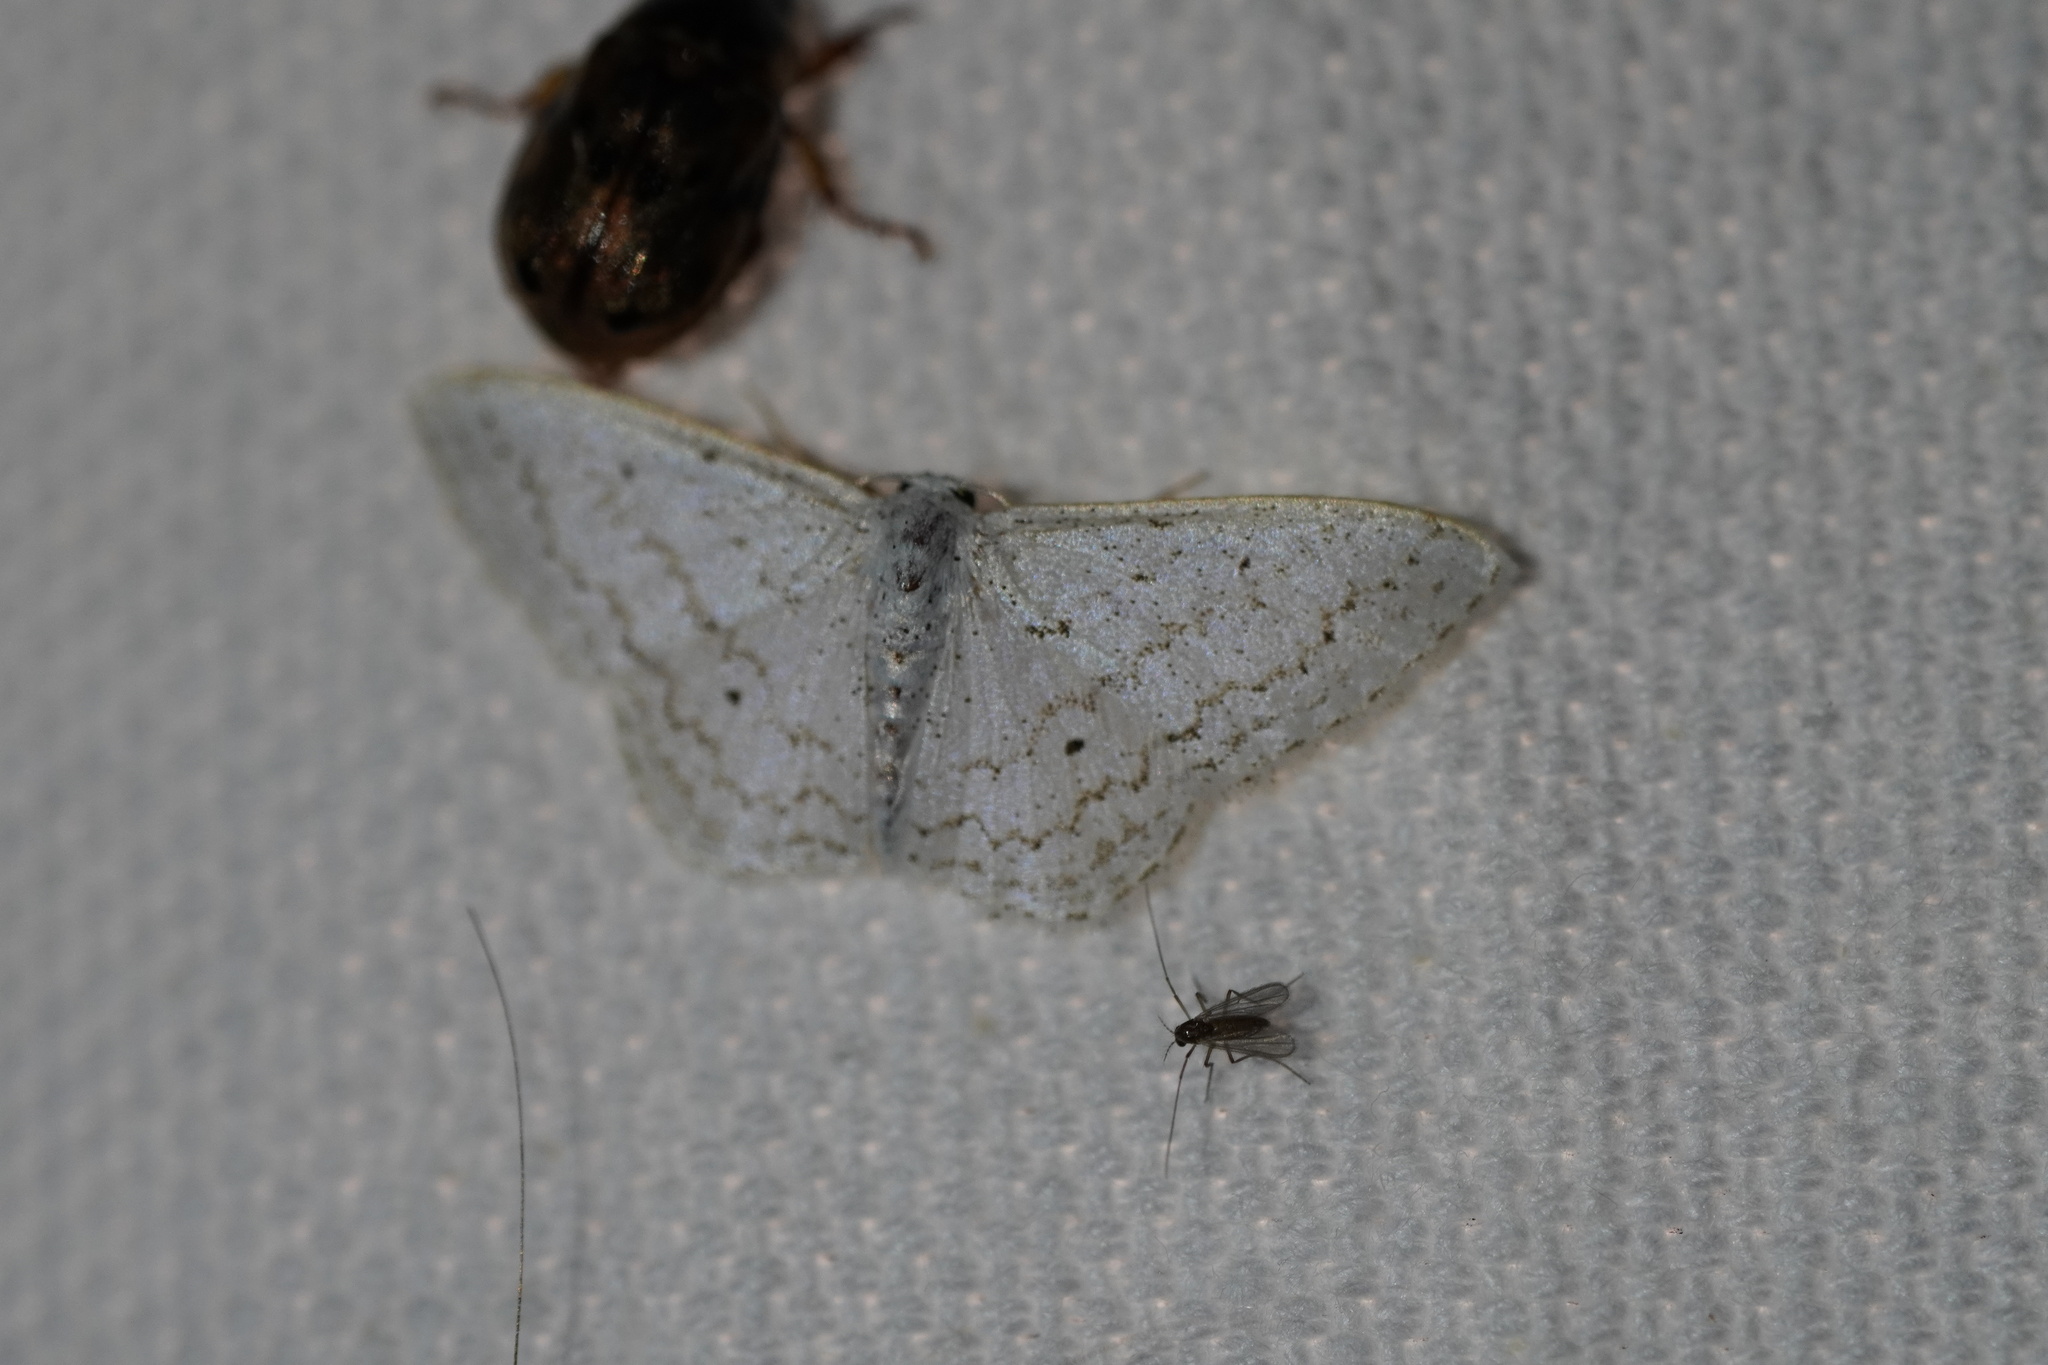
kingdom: Animalia
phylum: Arthropoda
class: Insecta
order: Lepidoptera
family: Geometridae
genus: Idaea
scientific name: Idaea tacturata
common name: Dot-lined wave
